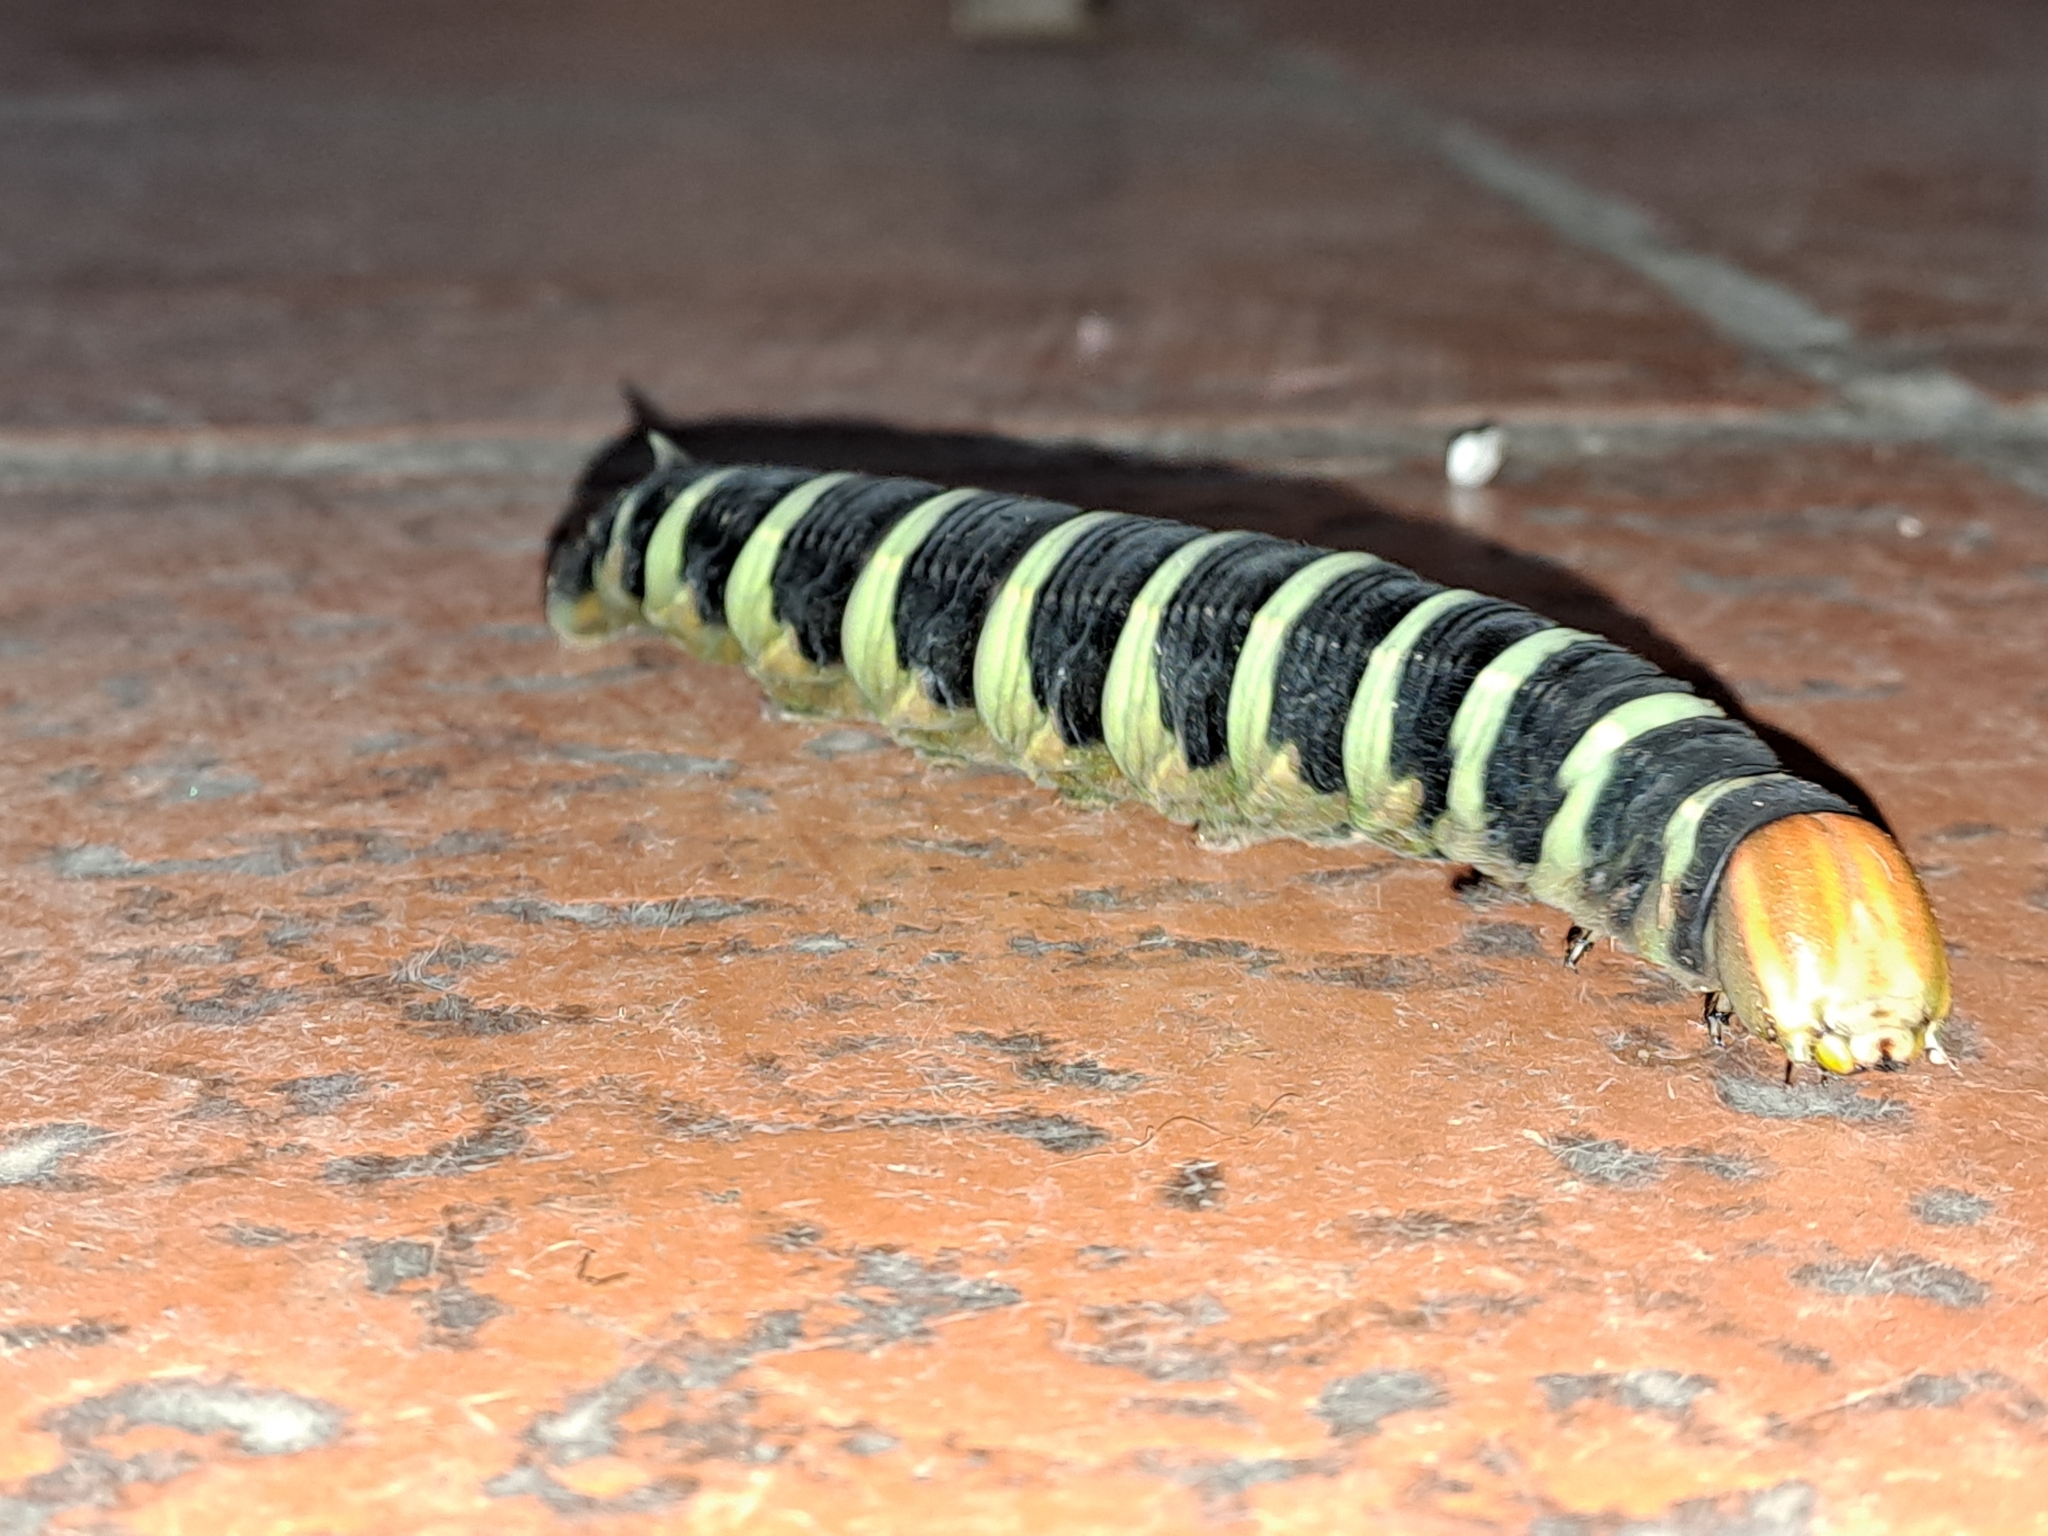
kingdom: Animalia
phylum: Arthropoda
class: Insecta
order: Lepidoptera
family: Sphingidae
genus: Pachylia
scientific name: Pachylia syces
